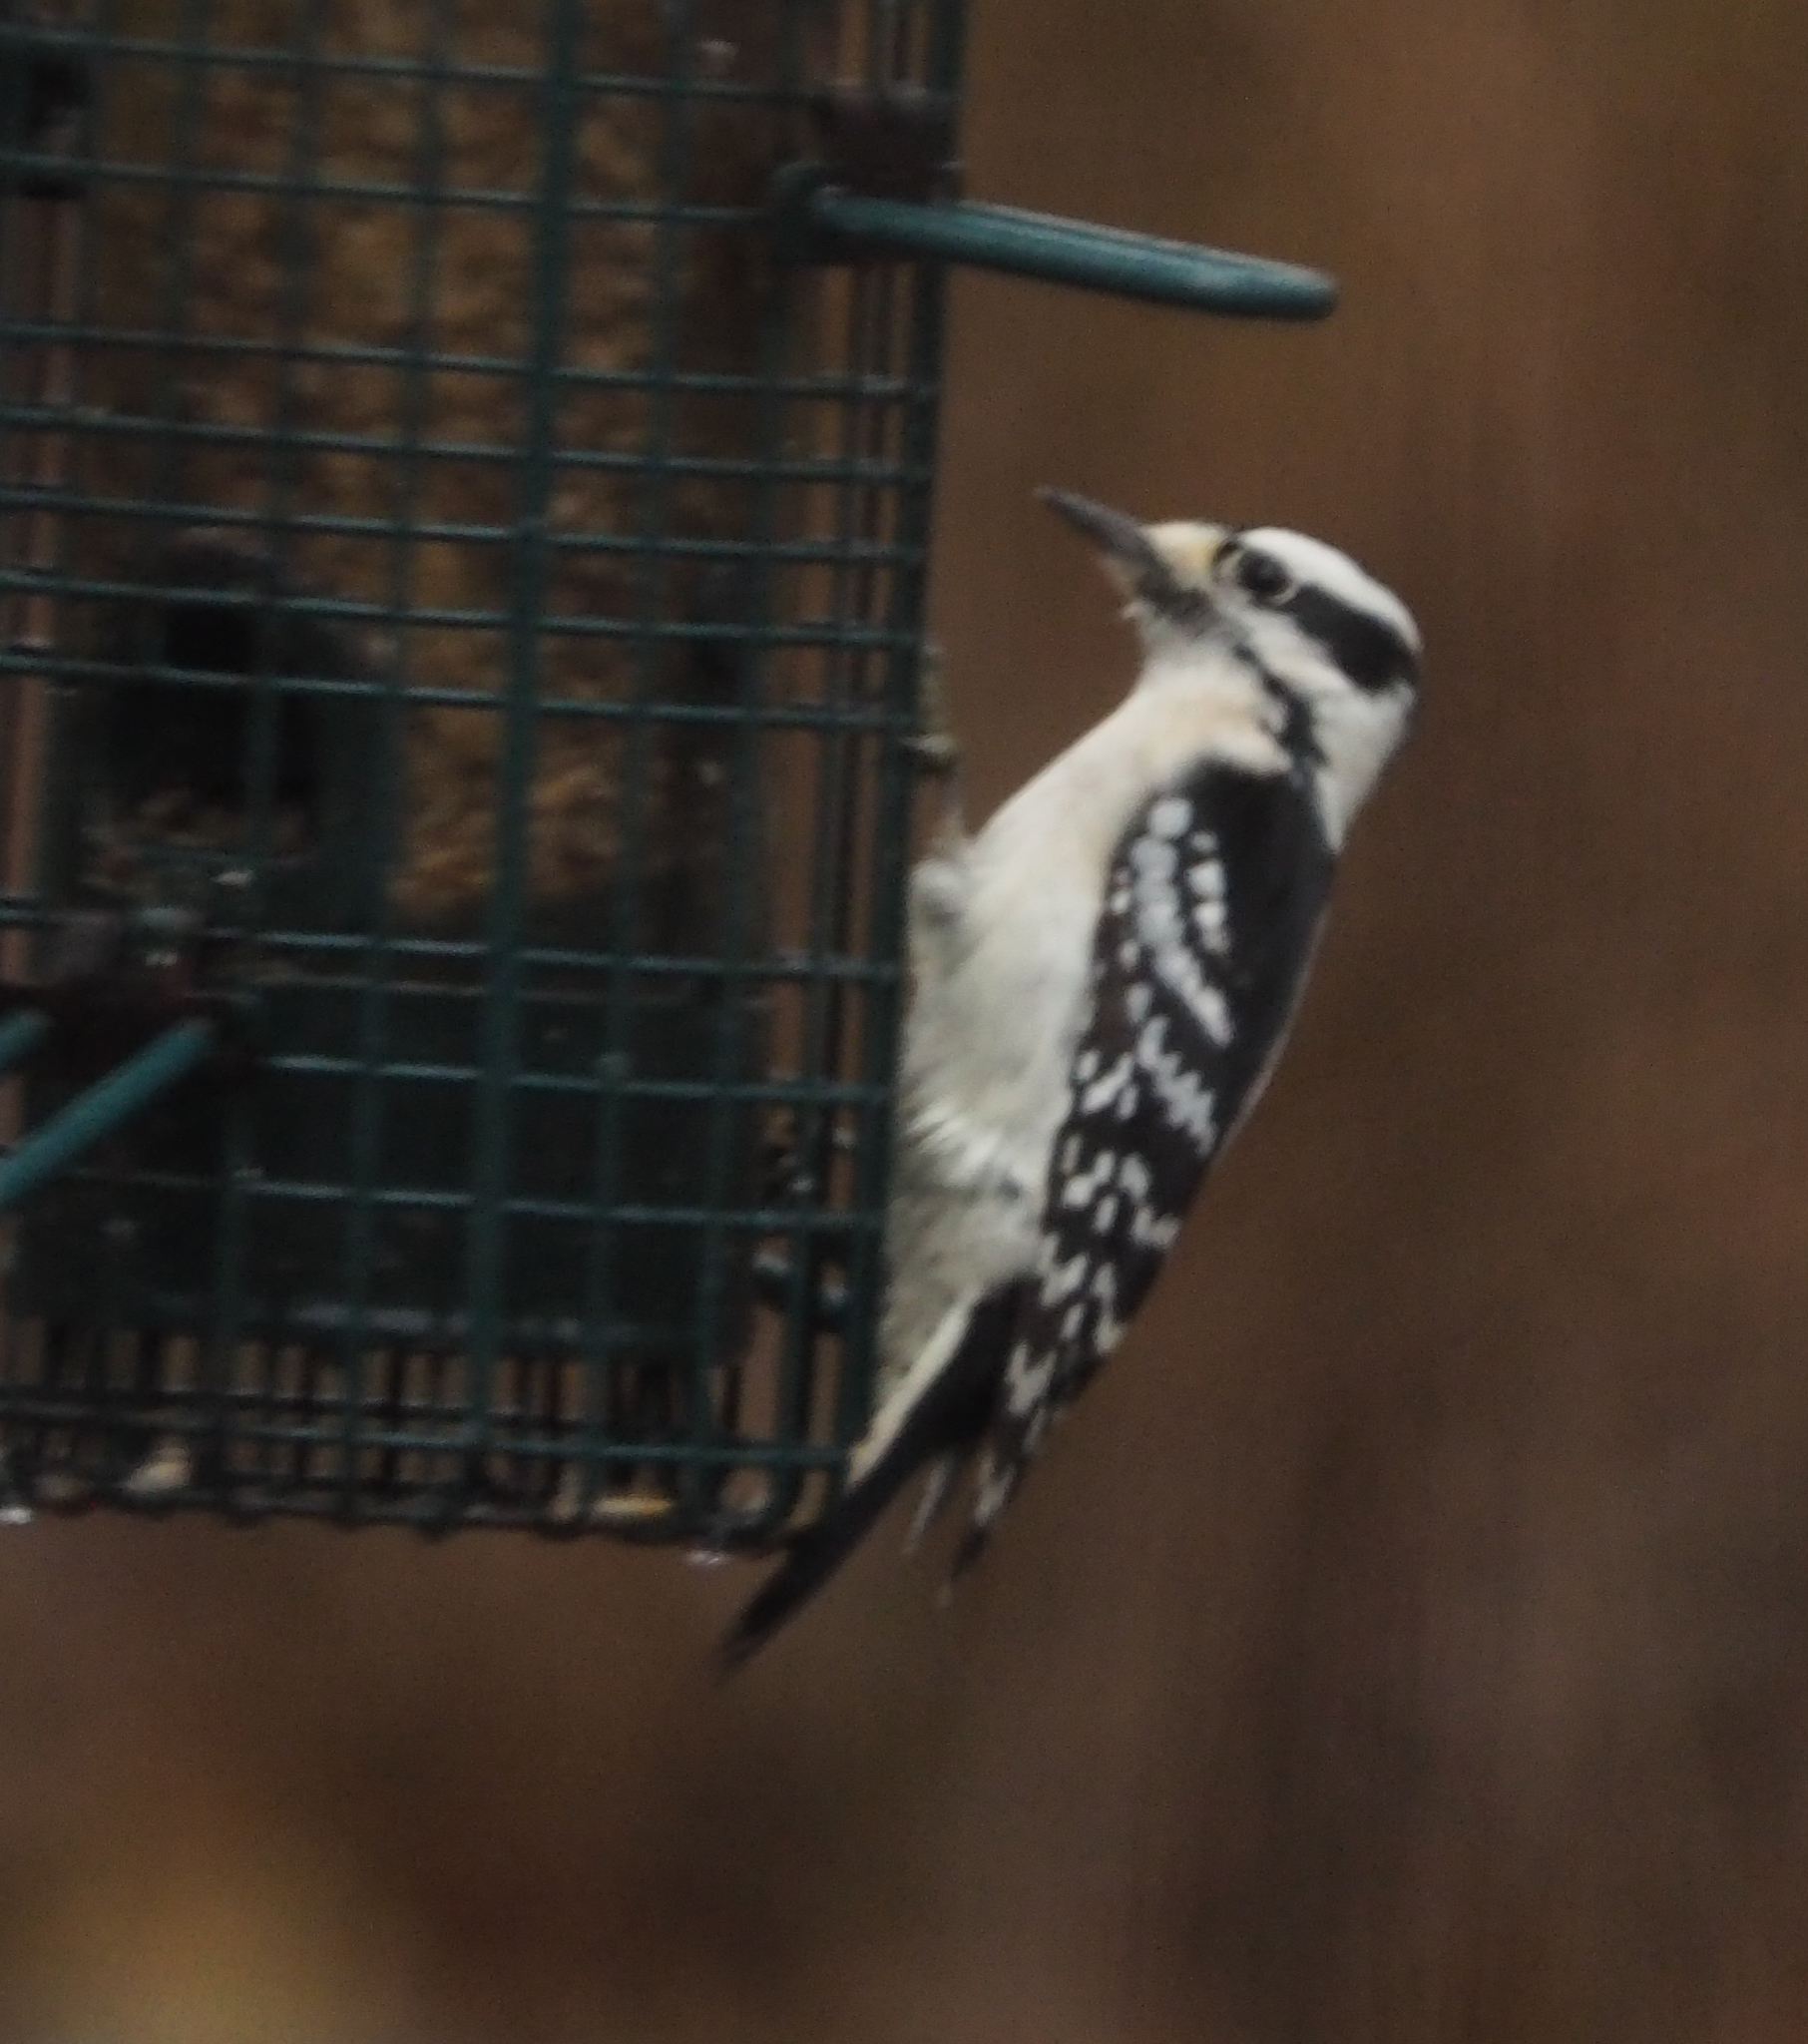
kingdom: Animalia
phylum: Chordata
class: Aves
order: Piciformes
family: Picidae
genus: Dryobates
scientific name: Dryobates pubescens
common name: Downy woodpecker
